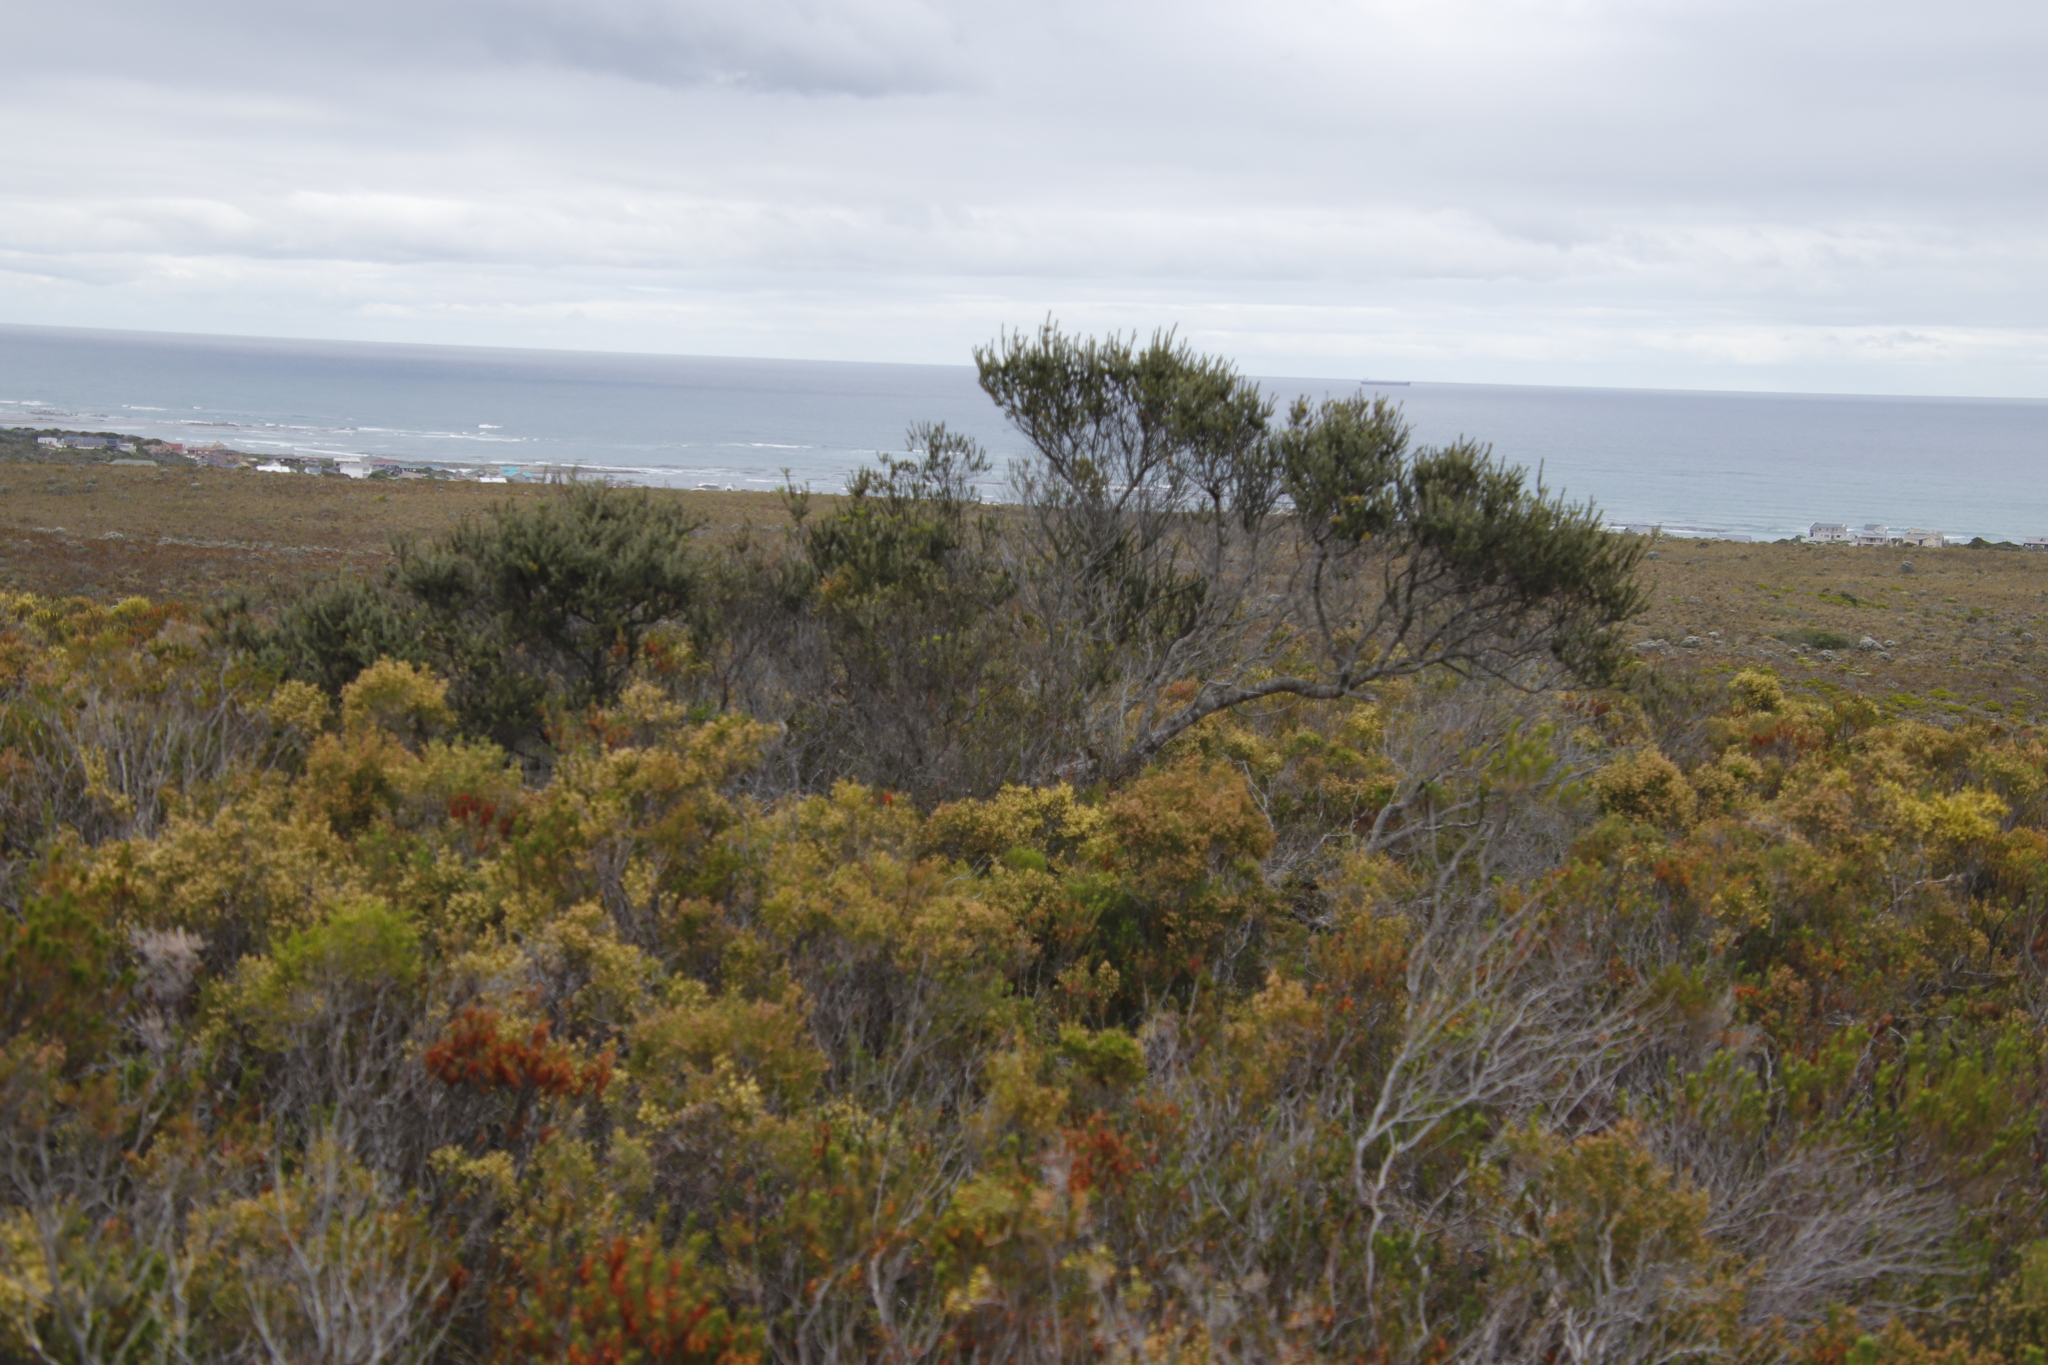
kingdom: Plantae
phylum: Tracheophyta
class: Magnoliopsida
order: Fagales
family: Myricaceae
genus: Morella
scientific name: Morella cordifolia
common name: Waxberry
